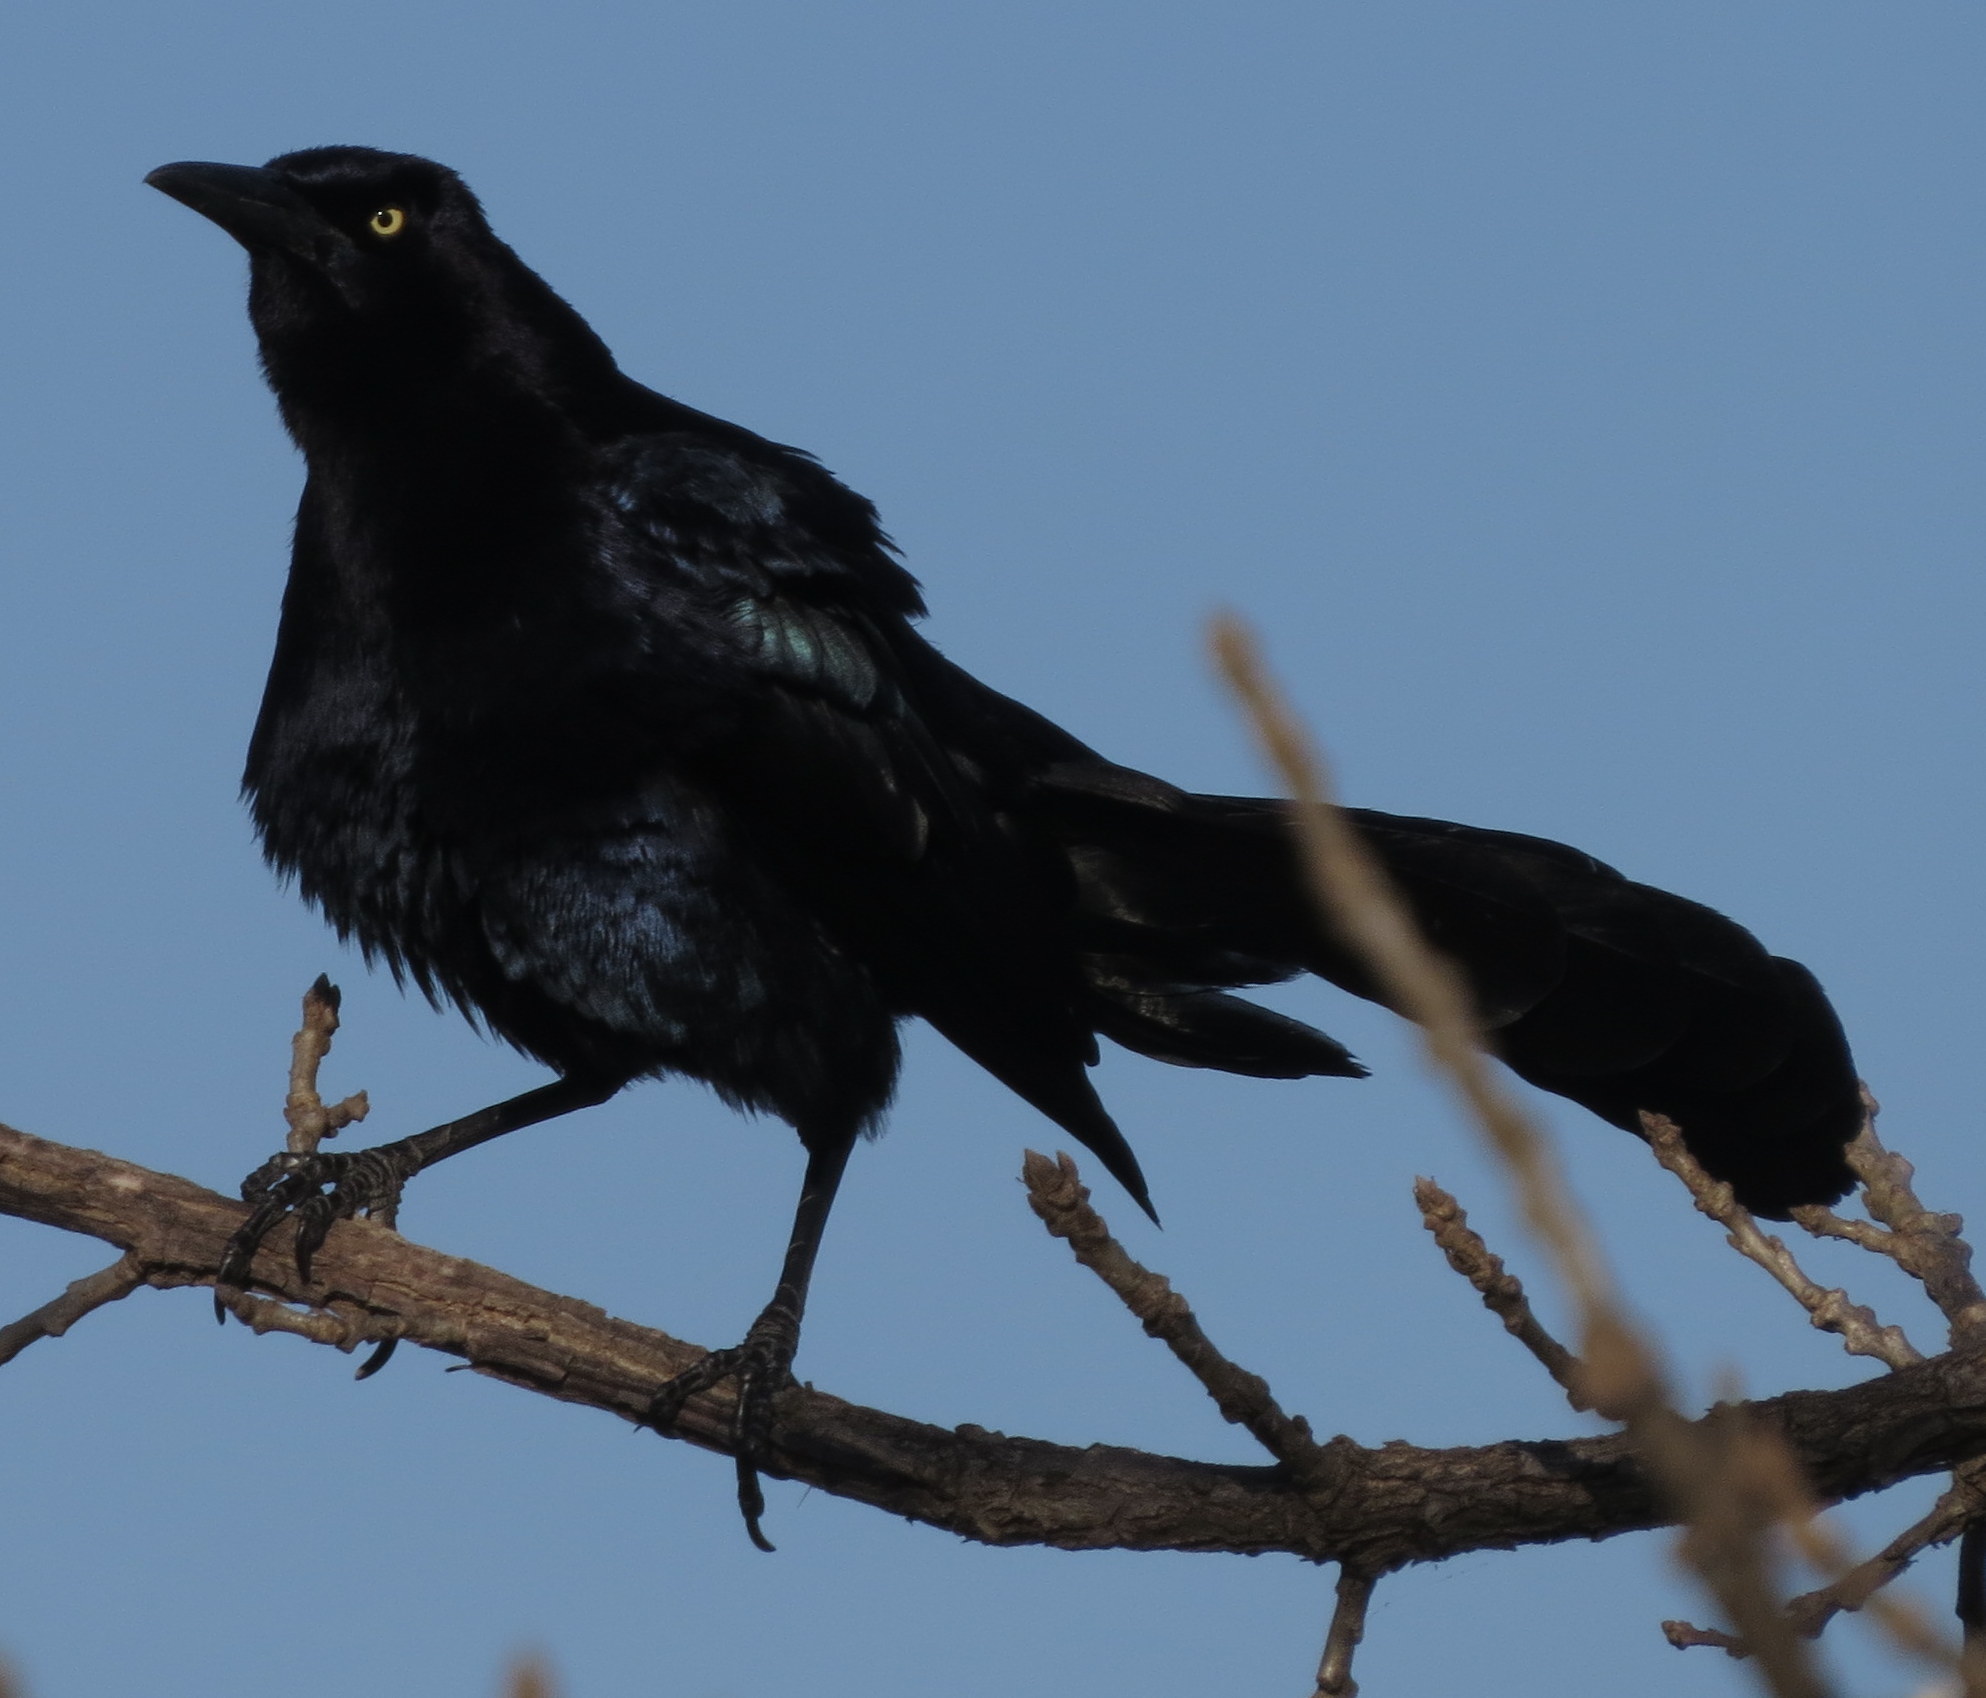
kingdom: Animalia
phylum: Chordata
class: Aves
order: Passeriformes
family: Icteridae
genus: Quiscalus
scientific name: Quiscalus mexicanus
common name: Great-tailed grackle
